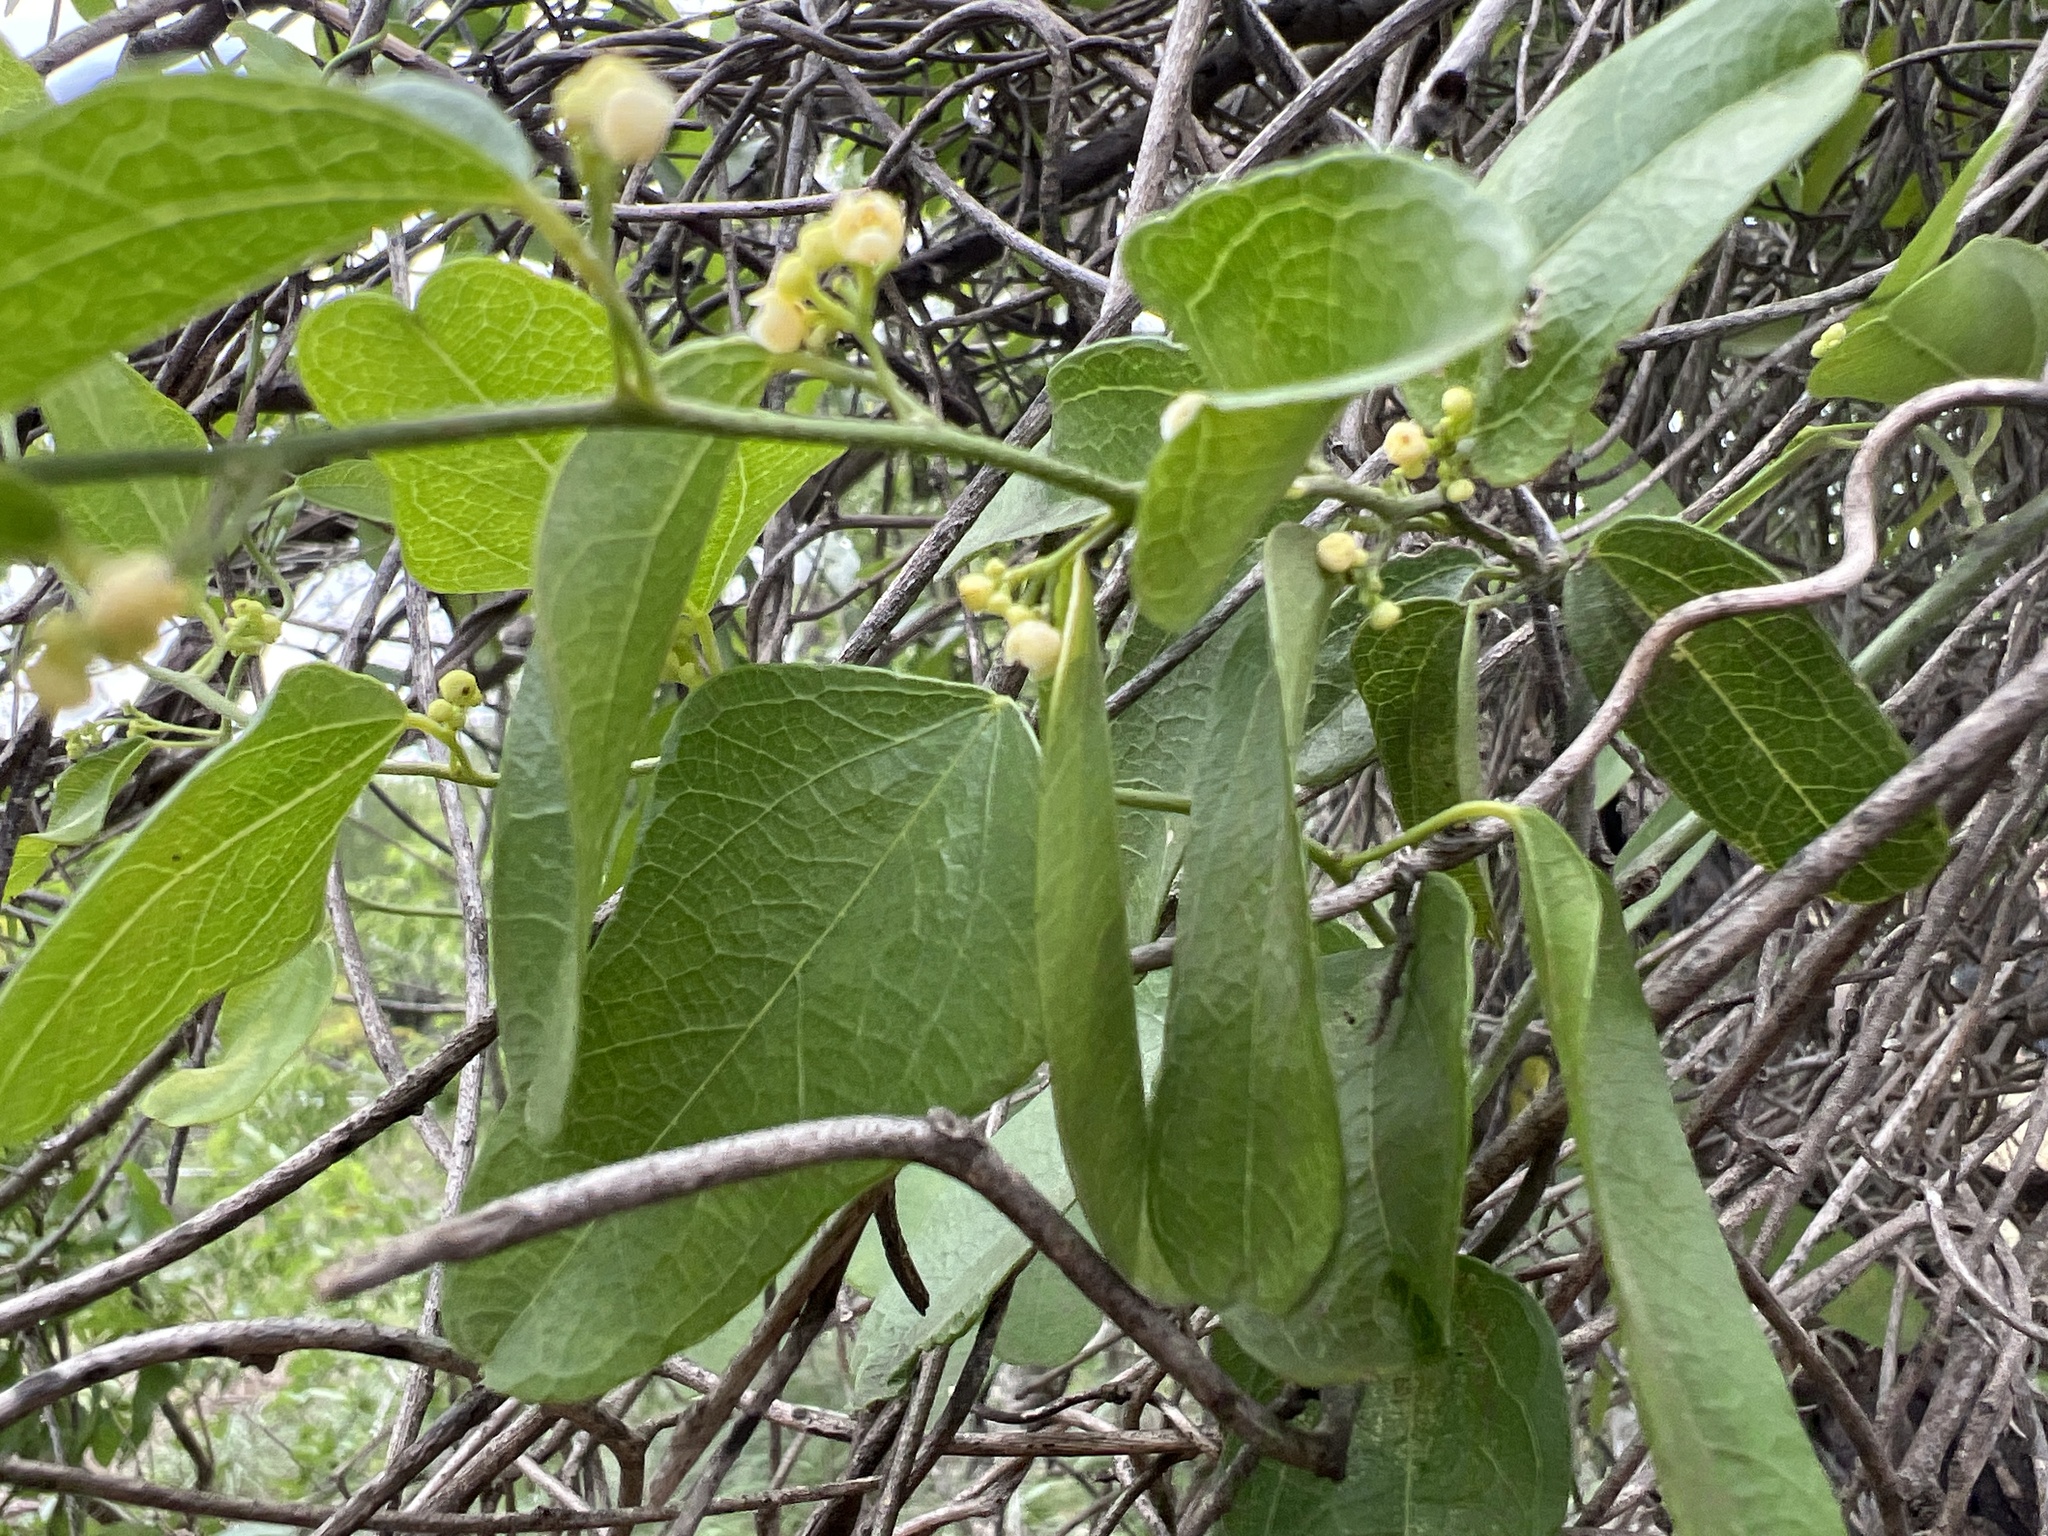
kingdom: Plantae
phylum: Tracheophyta
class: Magnoliopsida
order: Ranunculales
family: Menispermaceae
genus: Cocculus
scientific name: Cocculus diversifolius
